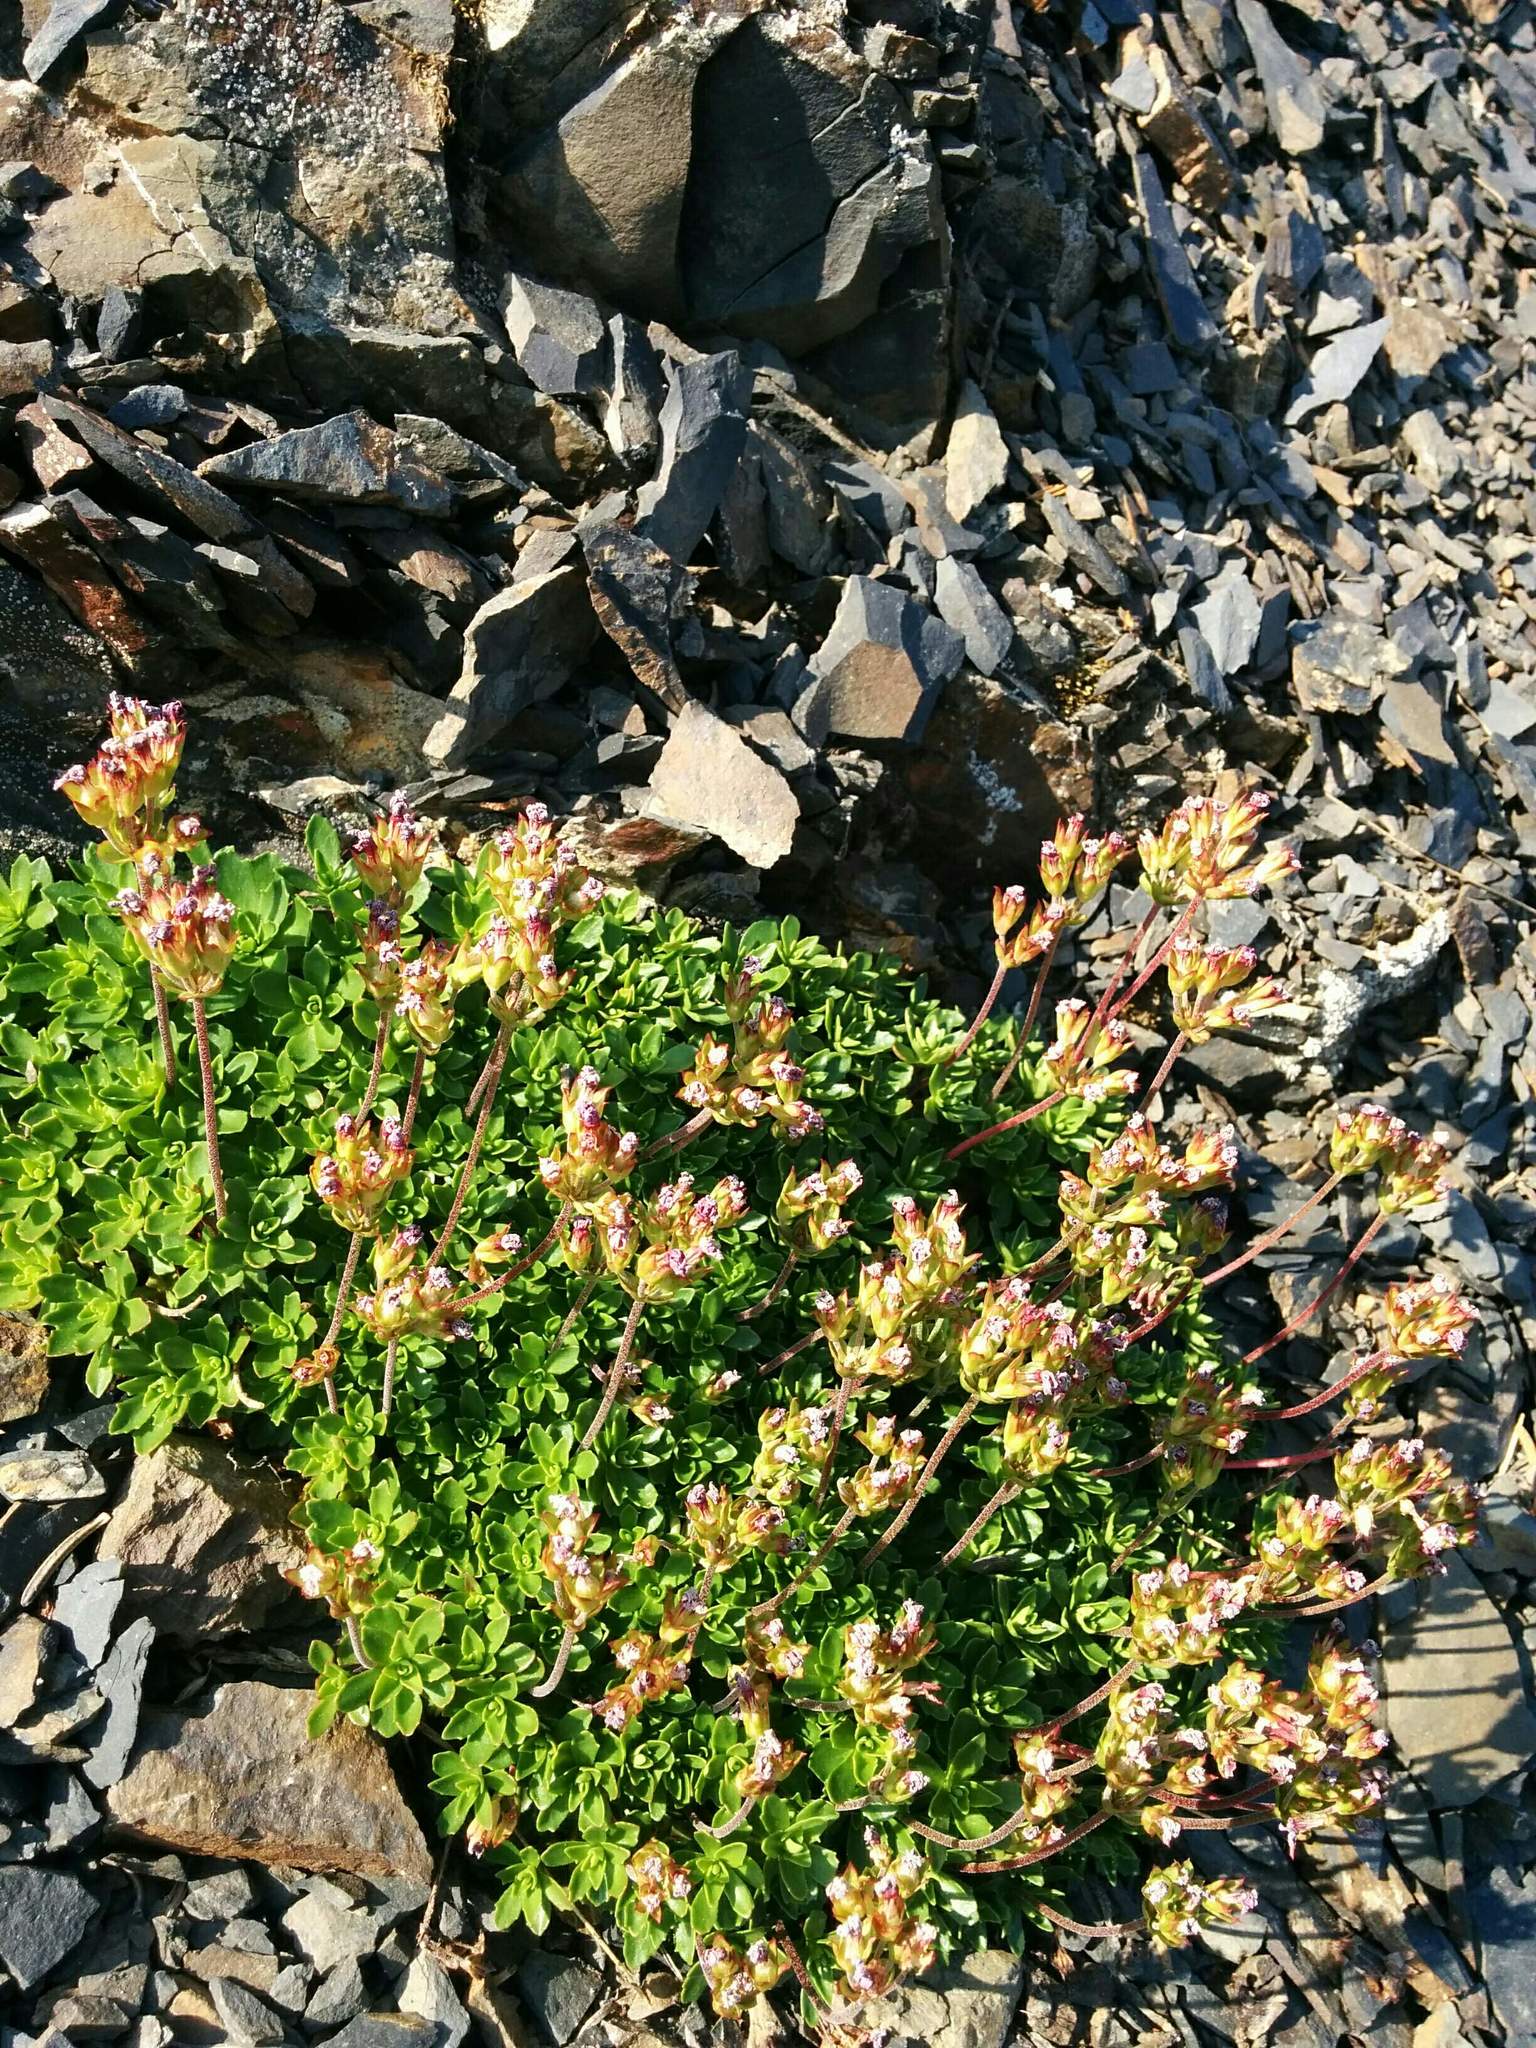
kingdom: Plantae
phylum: Tracheophyta
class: Magnoliopsida
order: Ericales
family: Primulaceae
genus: Androsace
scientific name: Androsace laevigata
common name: Cliff dwarf-primrose
